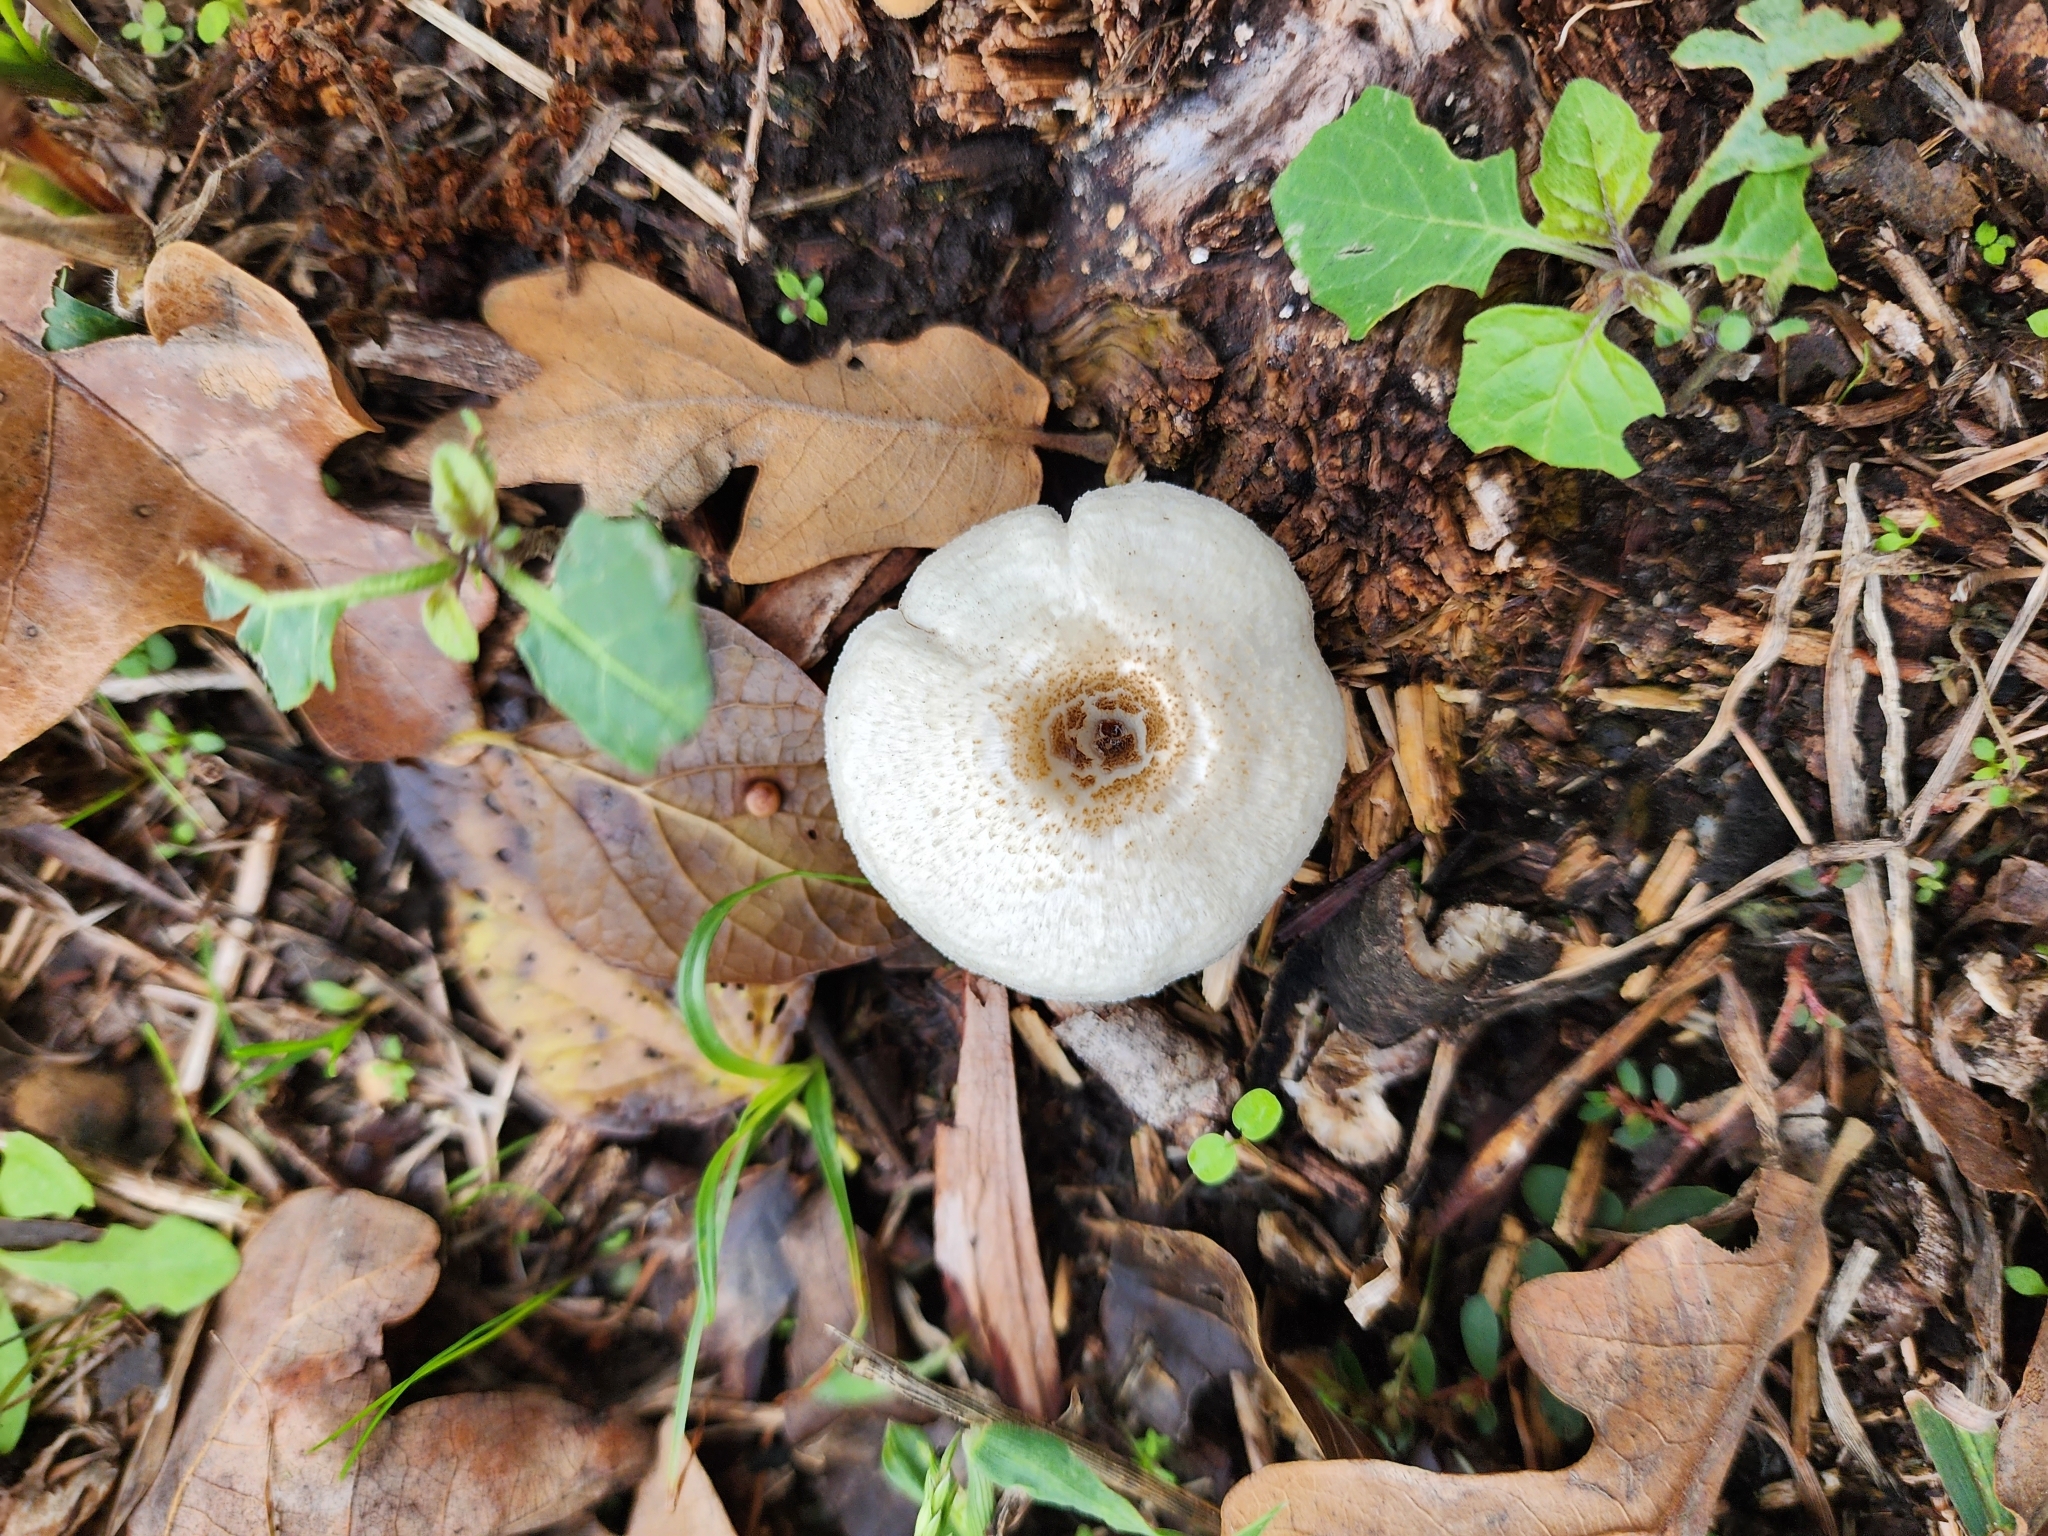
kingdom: Fungi
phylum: Basidiomycota
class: Agaricomycetes
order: Polyporales
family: Polyporaceae
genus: Lentinus
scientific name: Lentinus tigrinus
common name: Tiger sawgill
